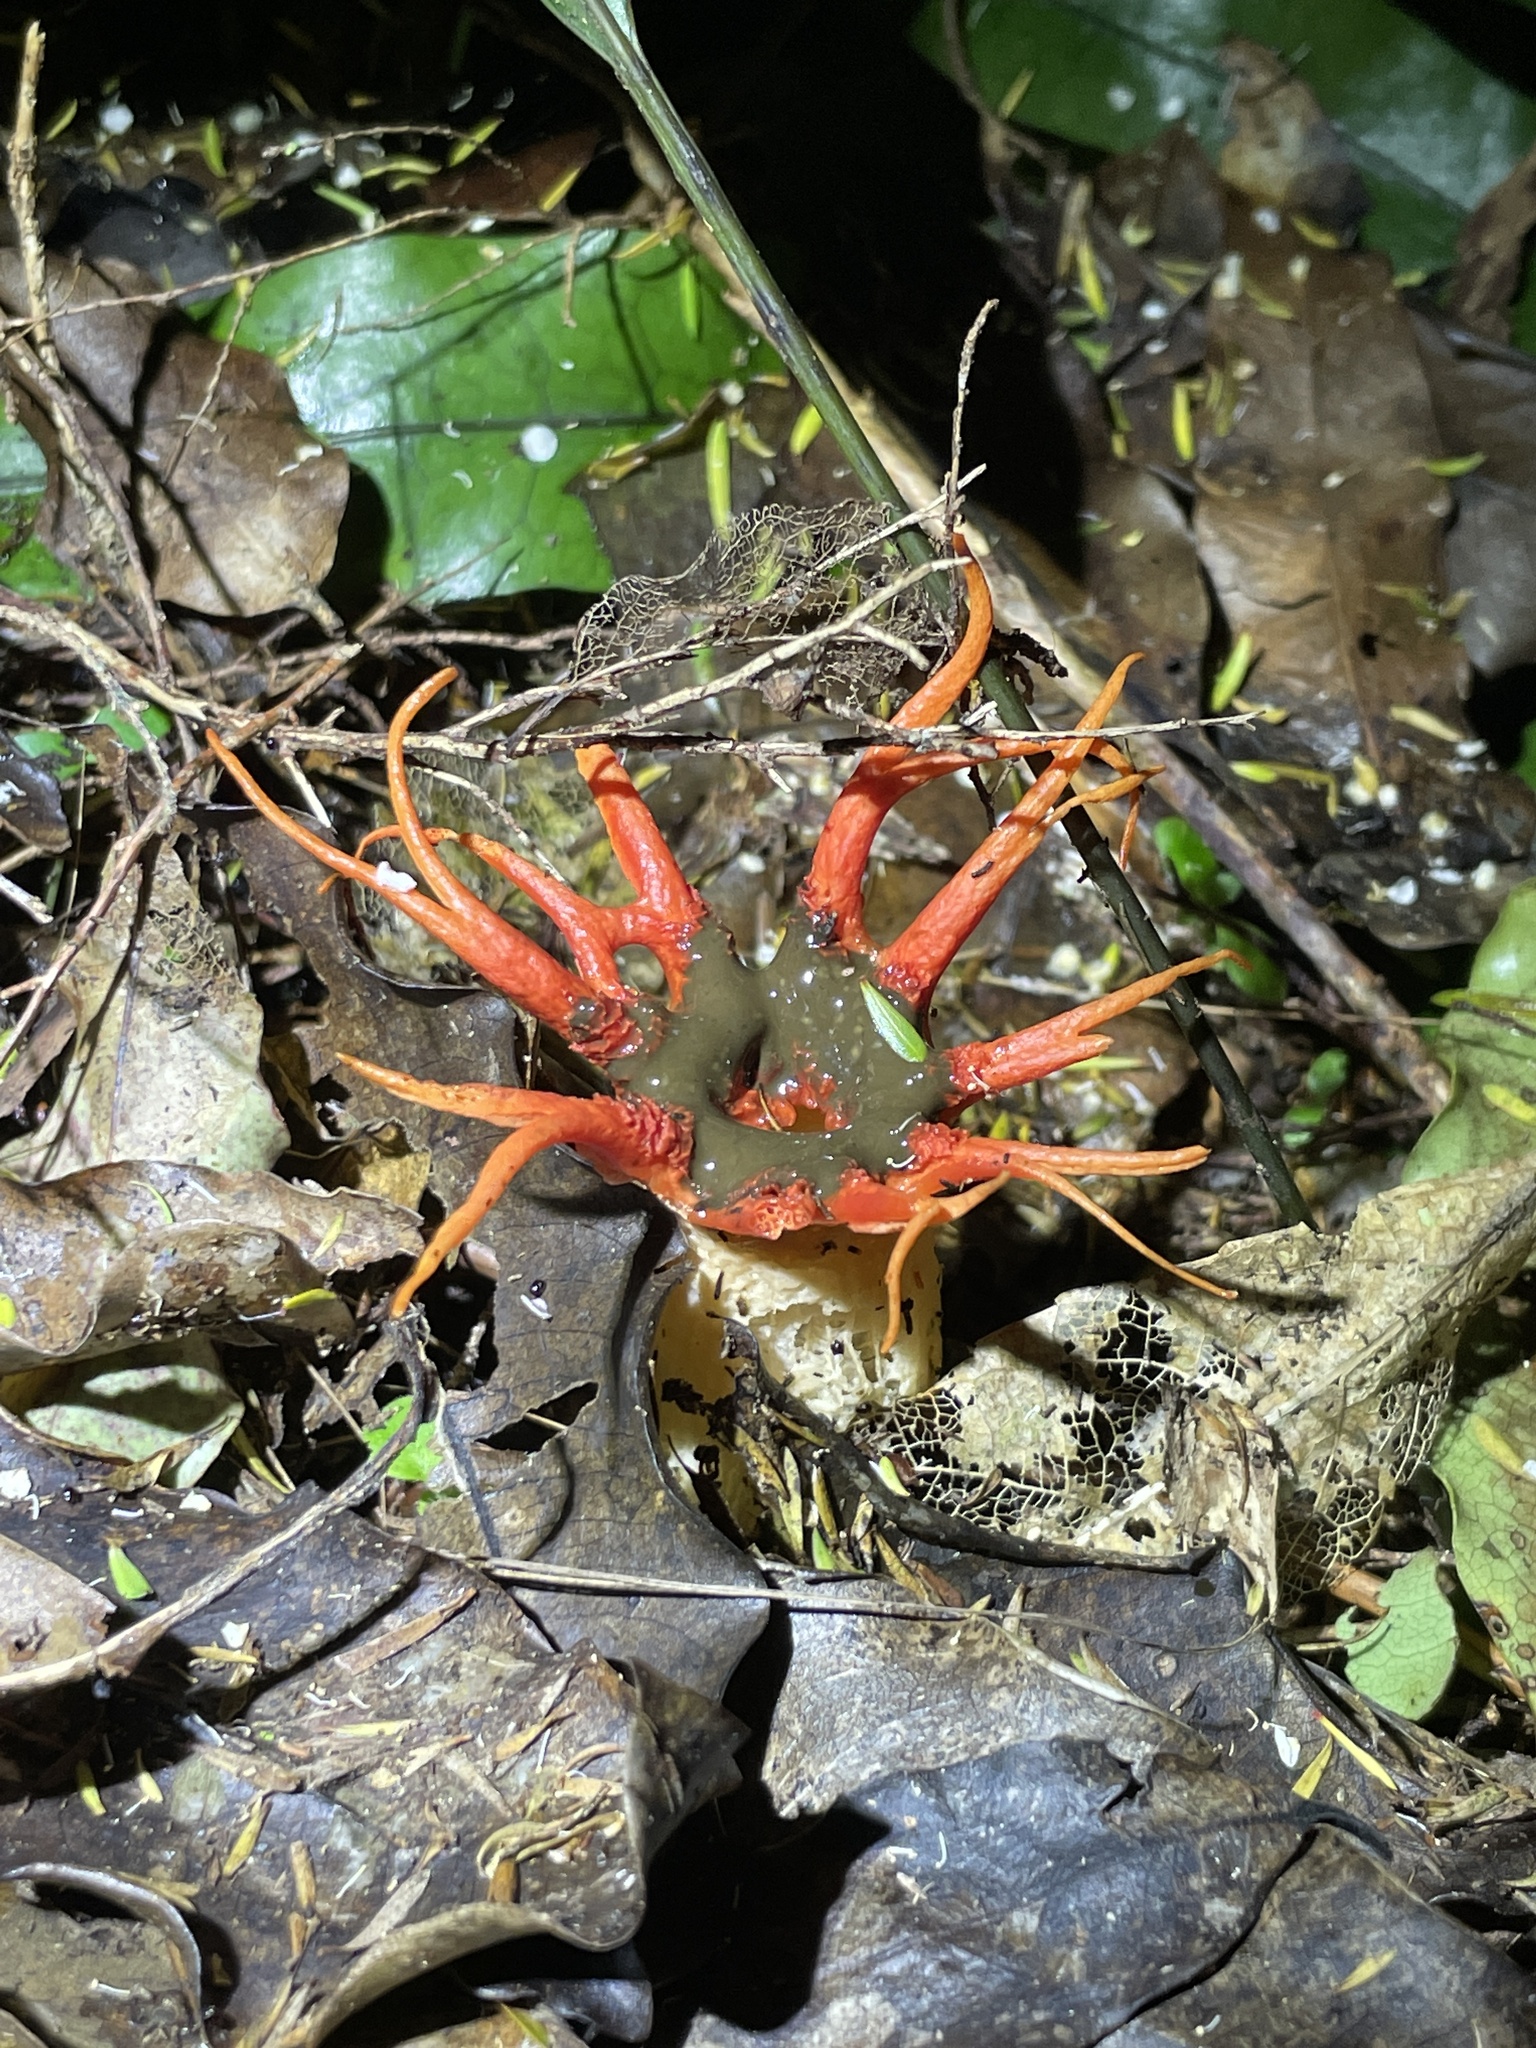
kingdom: Fungi
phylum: Basidiomycota
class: Agaricomycetes
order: Phallales
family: Phallaceae
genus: Aseroe
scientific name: Aseroe rubra
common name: Starfish fungus
